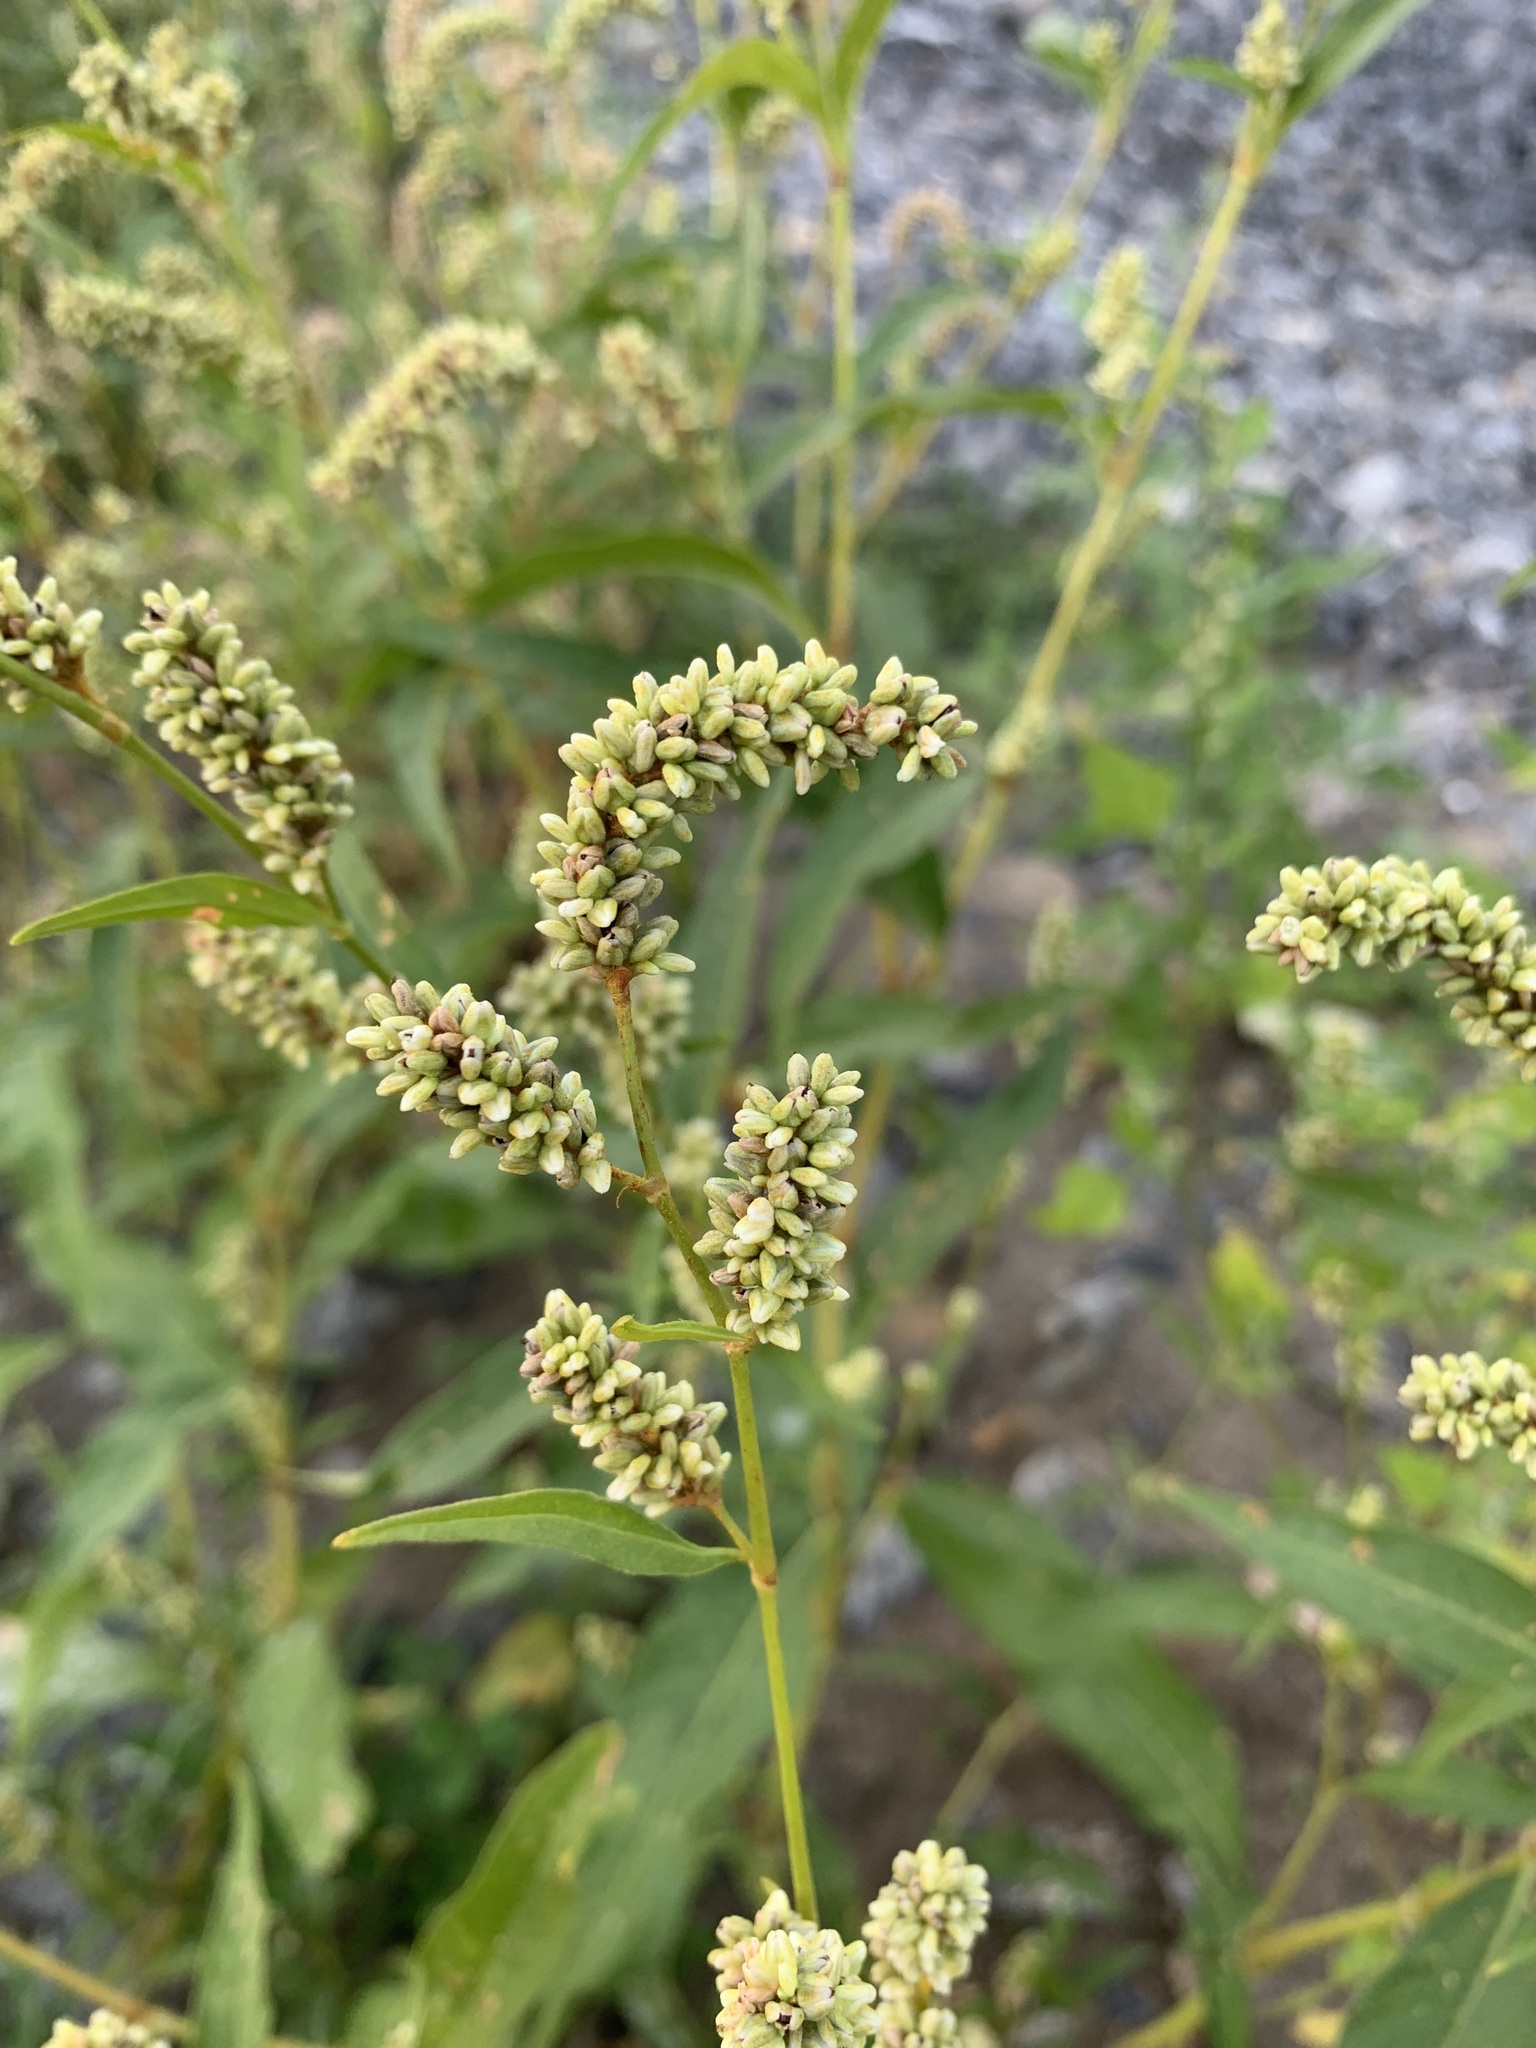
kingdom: Plantae
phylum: Tracheophyta
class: Magnoliopsida
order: Caryophyllales
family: Polygonaceae
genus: Persicaria
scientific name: Persicaria lapathifolia
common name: Curlytop knotweed
